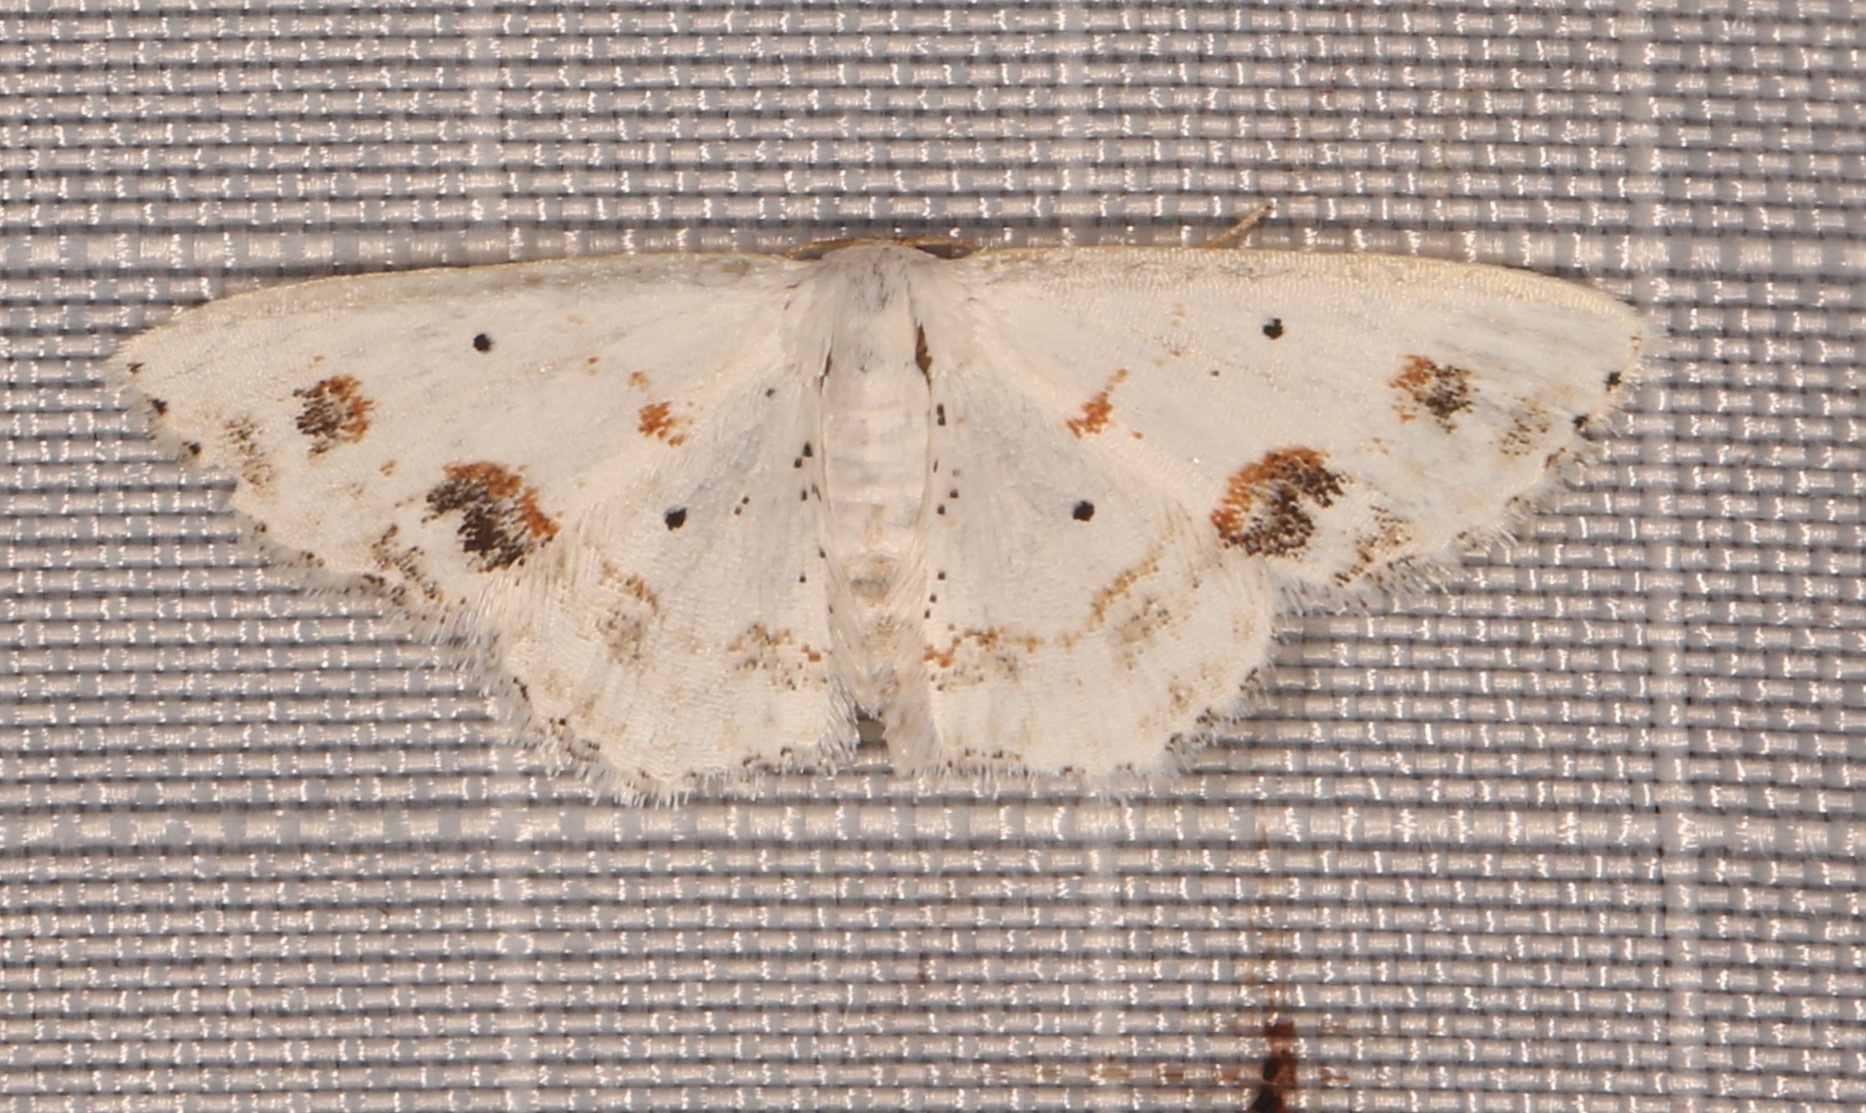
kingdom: Animalia
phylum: Arthropoda
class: Insecta
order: Lepidoptera
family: Geometridae
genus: Scopula
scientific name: Scopula lautaria
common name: Small frosted wave moth
